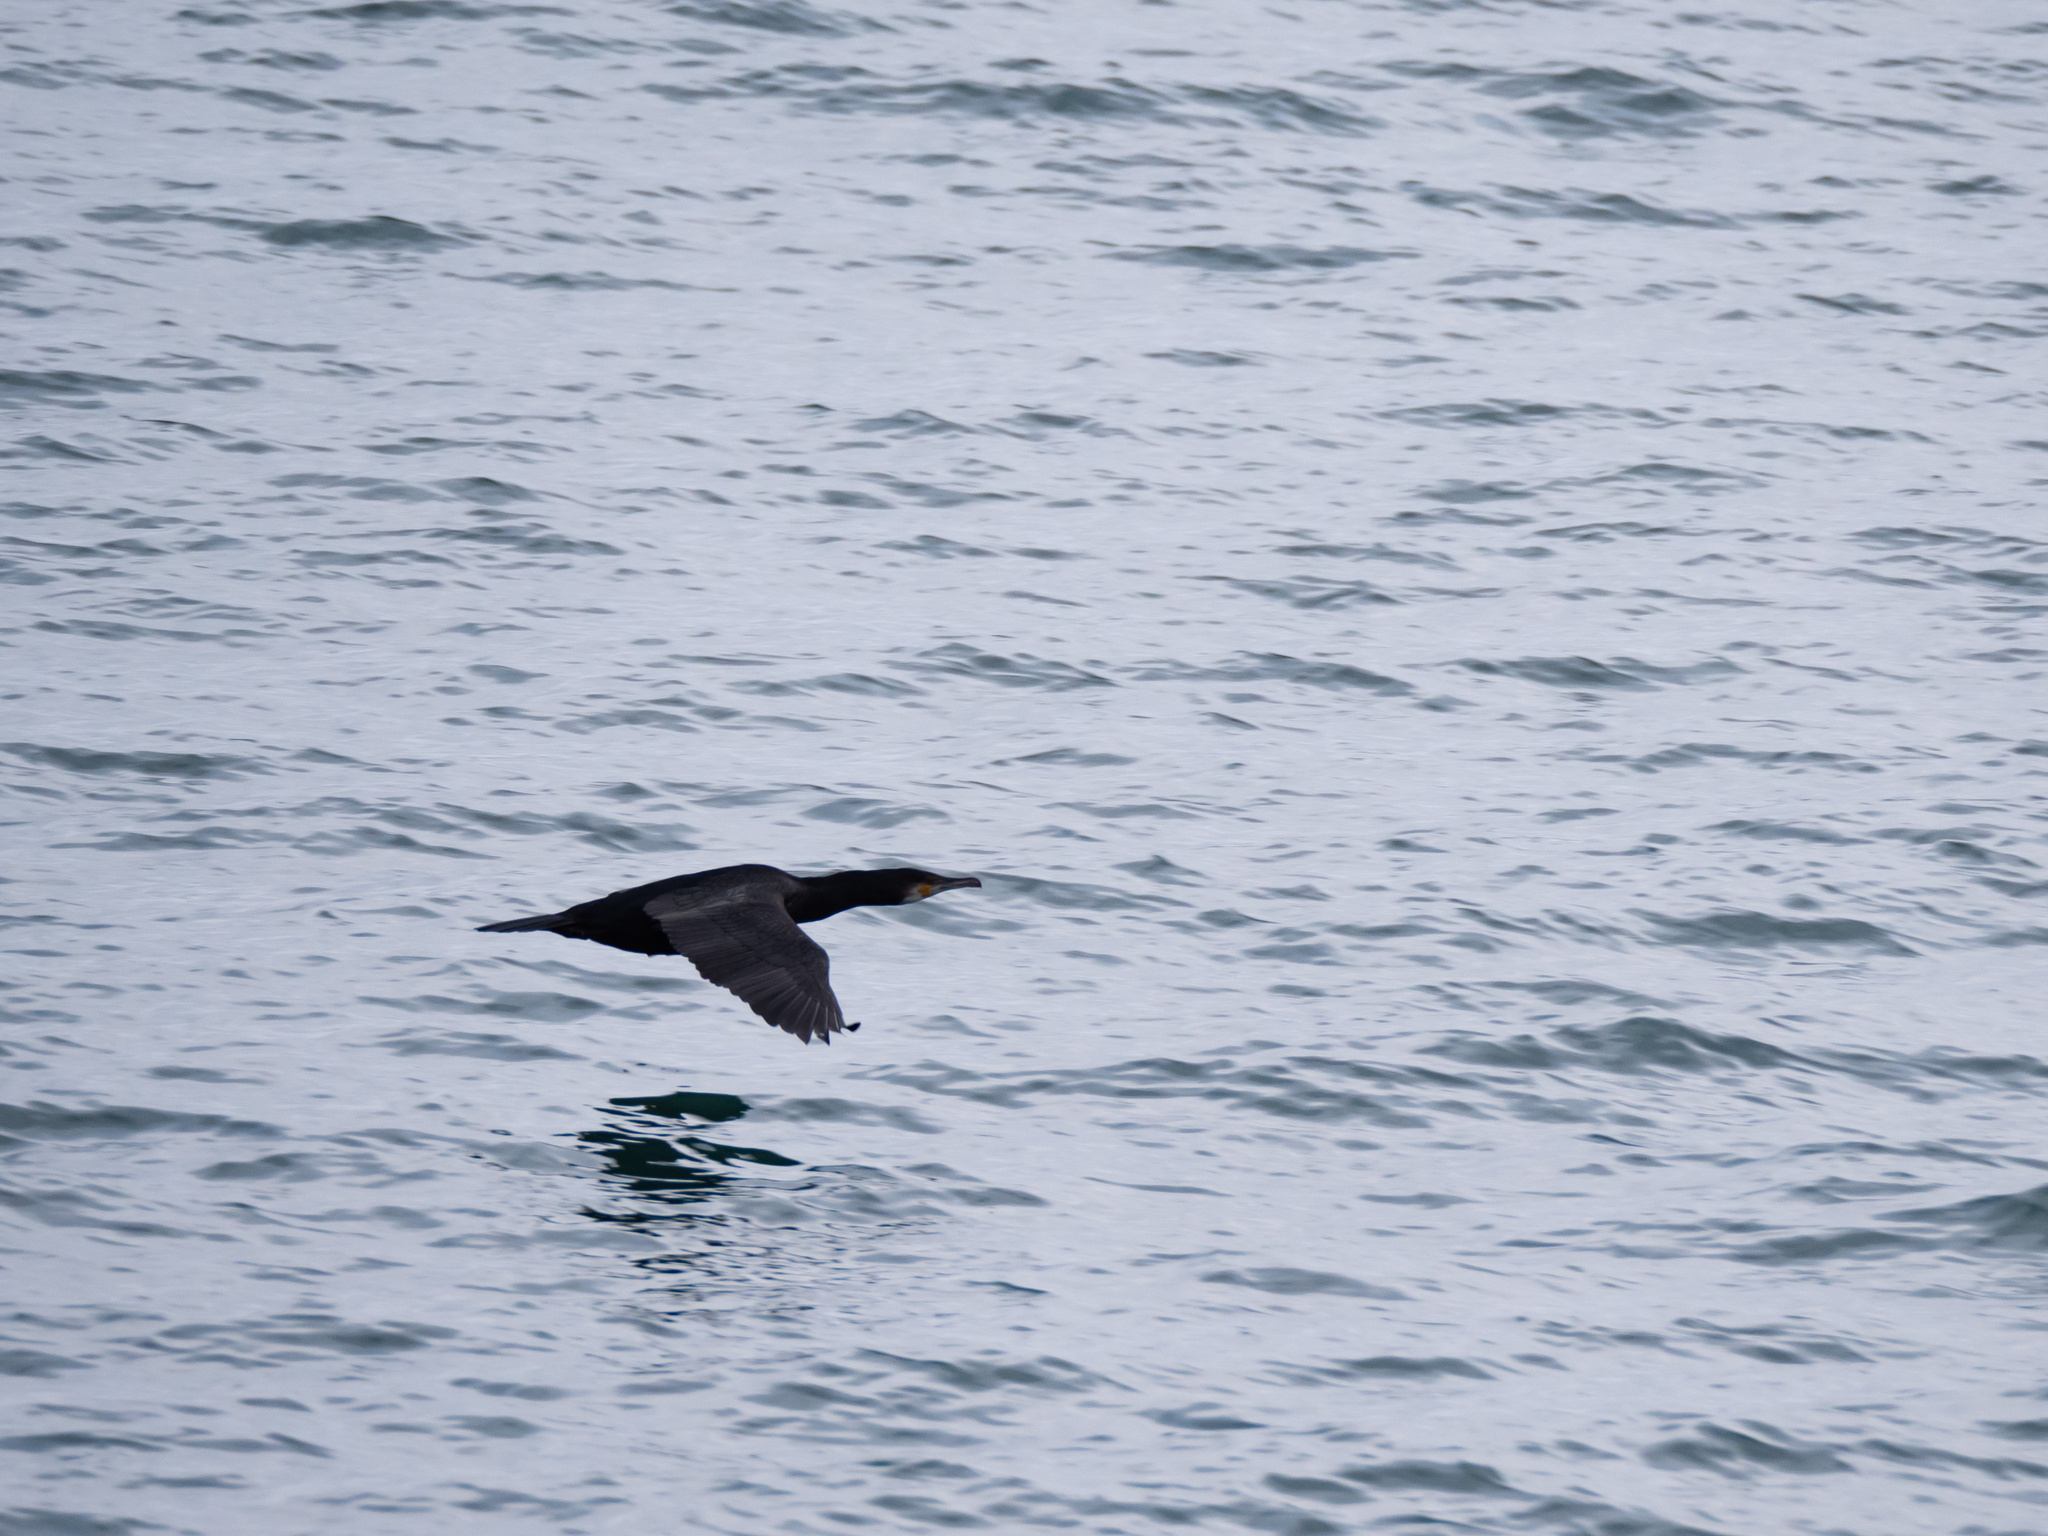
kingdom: Animalia
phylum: Chordata
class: Aves
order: Suliformes
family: Phalacrocoracidae
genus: Phalacrocorax
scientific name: Phalacrocorax carbo
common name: Great cormorant
